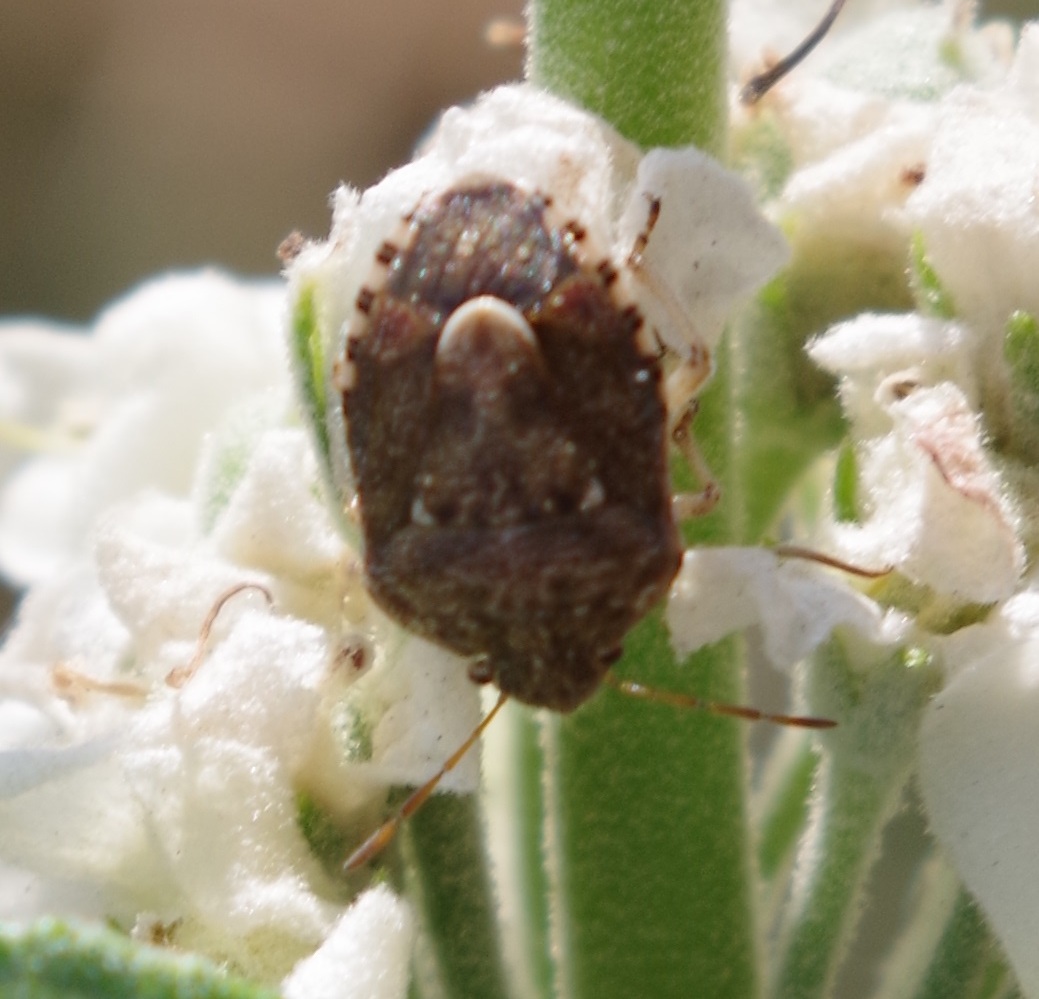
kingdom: Animalia
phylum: Arthropoda
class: Insecta
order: Hemiptera
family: Pentatomidae
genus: Staria
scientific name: Staria lunata
